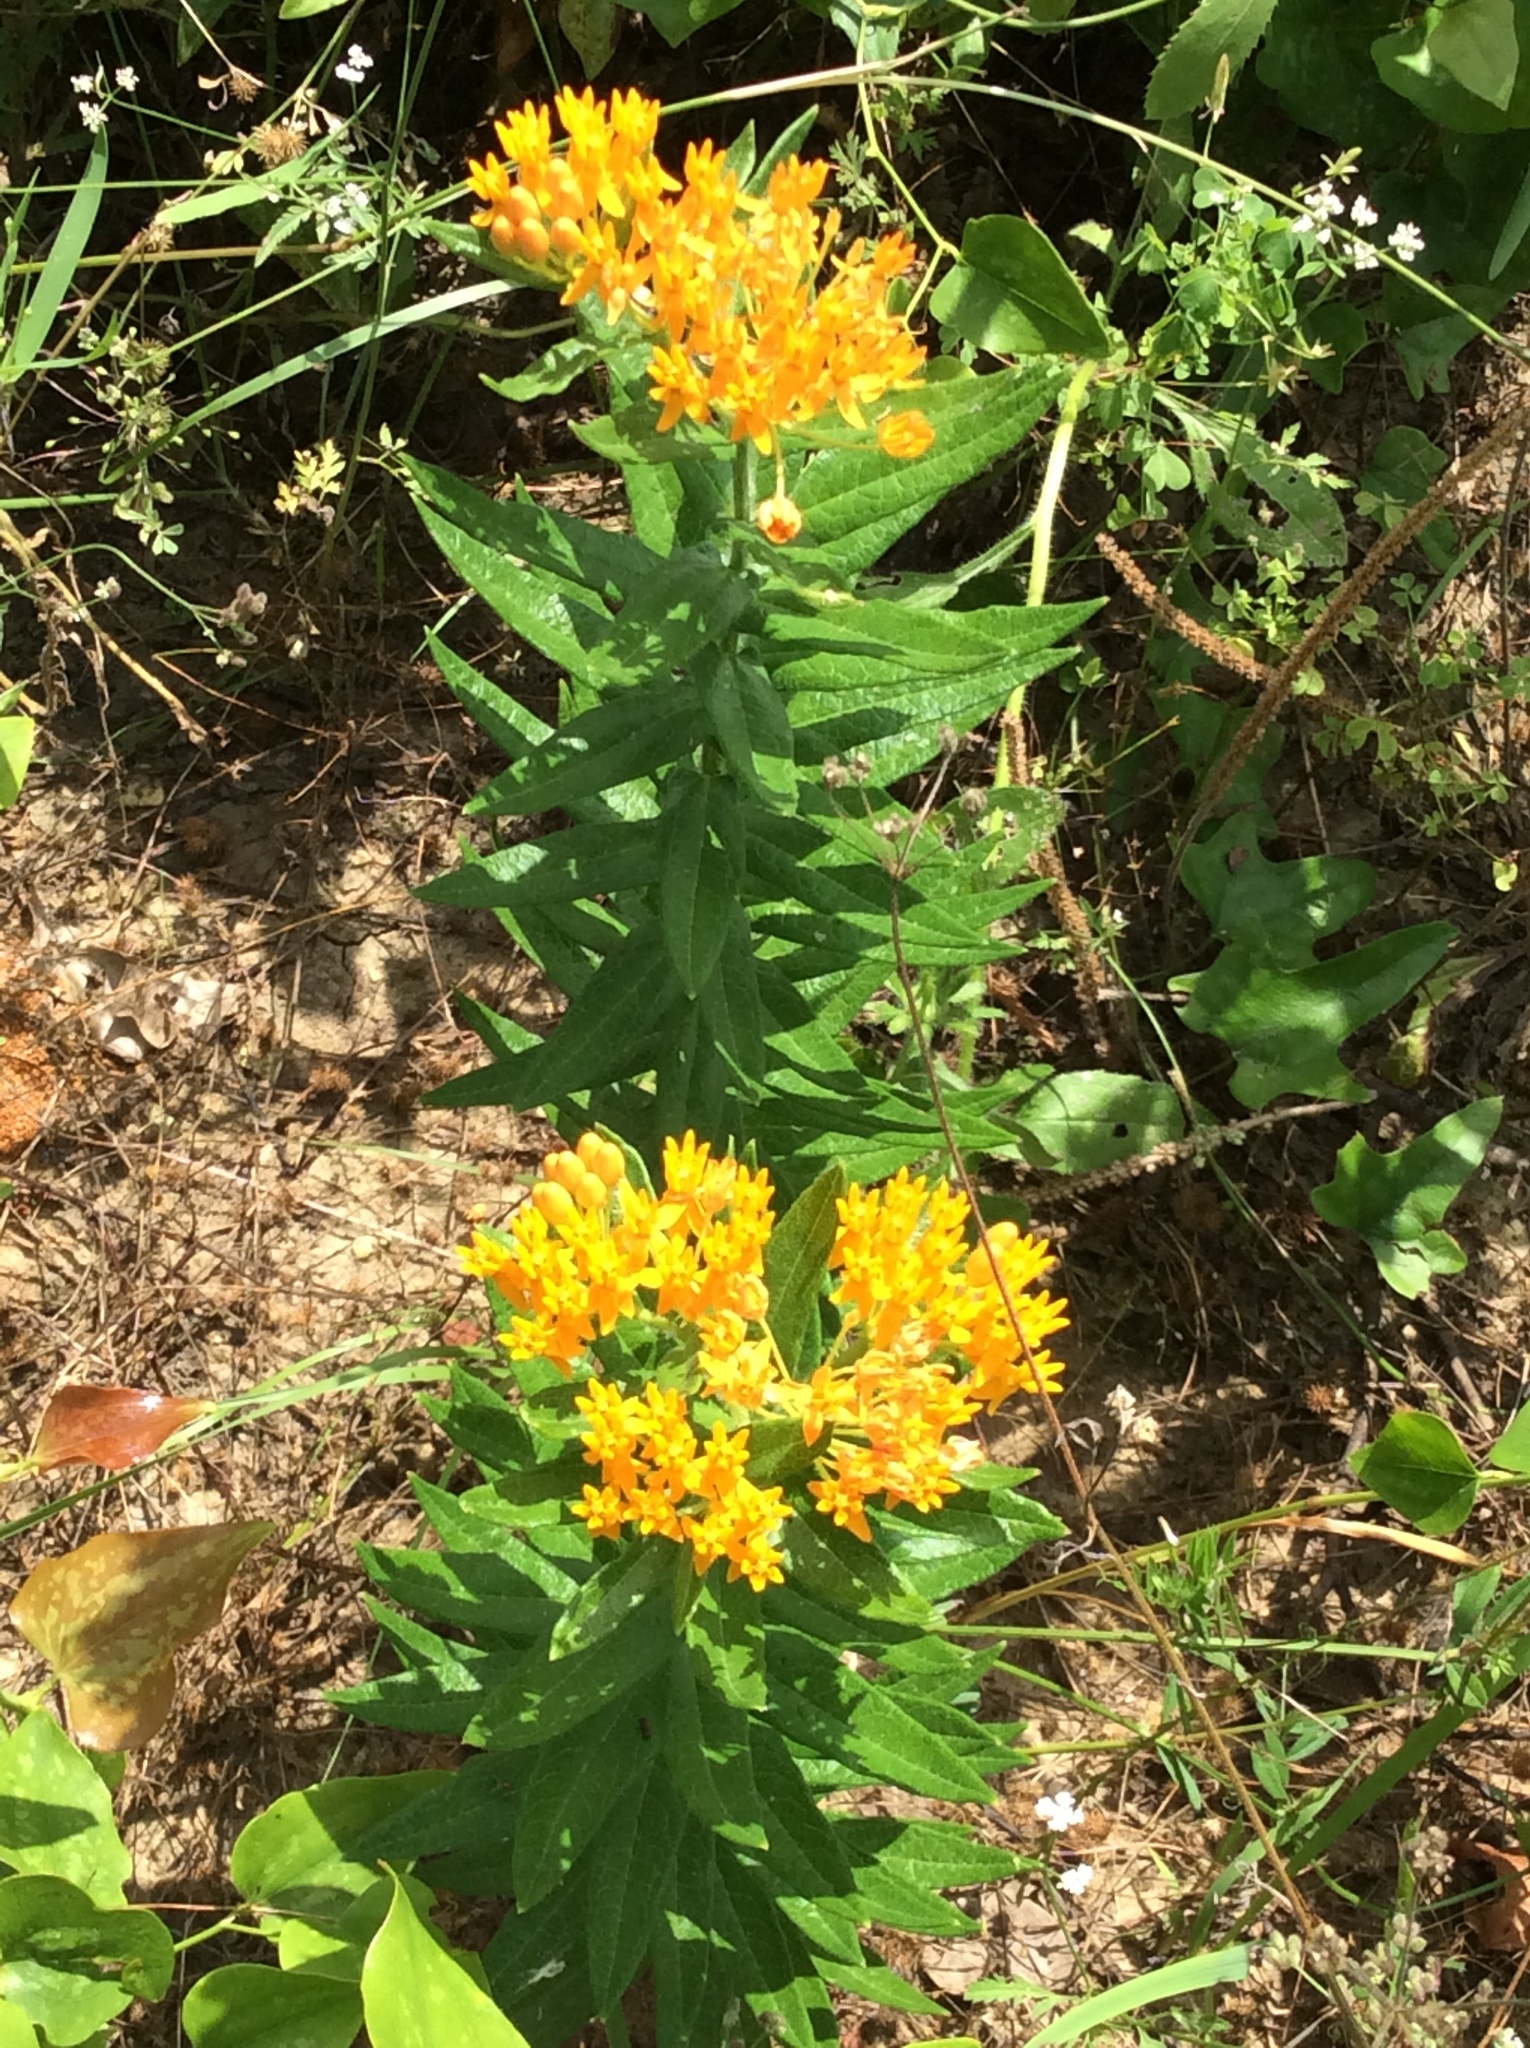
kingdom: Plantae
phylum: Tracheophyta
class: Magnoliopsida
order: Gentianales
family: Apocynaceae
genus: Asclepias
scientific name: Asclepias tuberosa
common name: Butterfly milkweed
